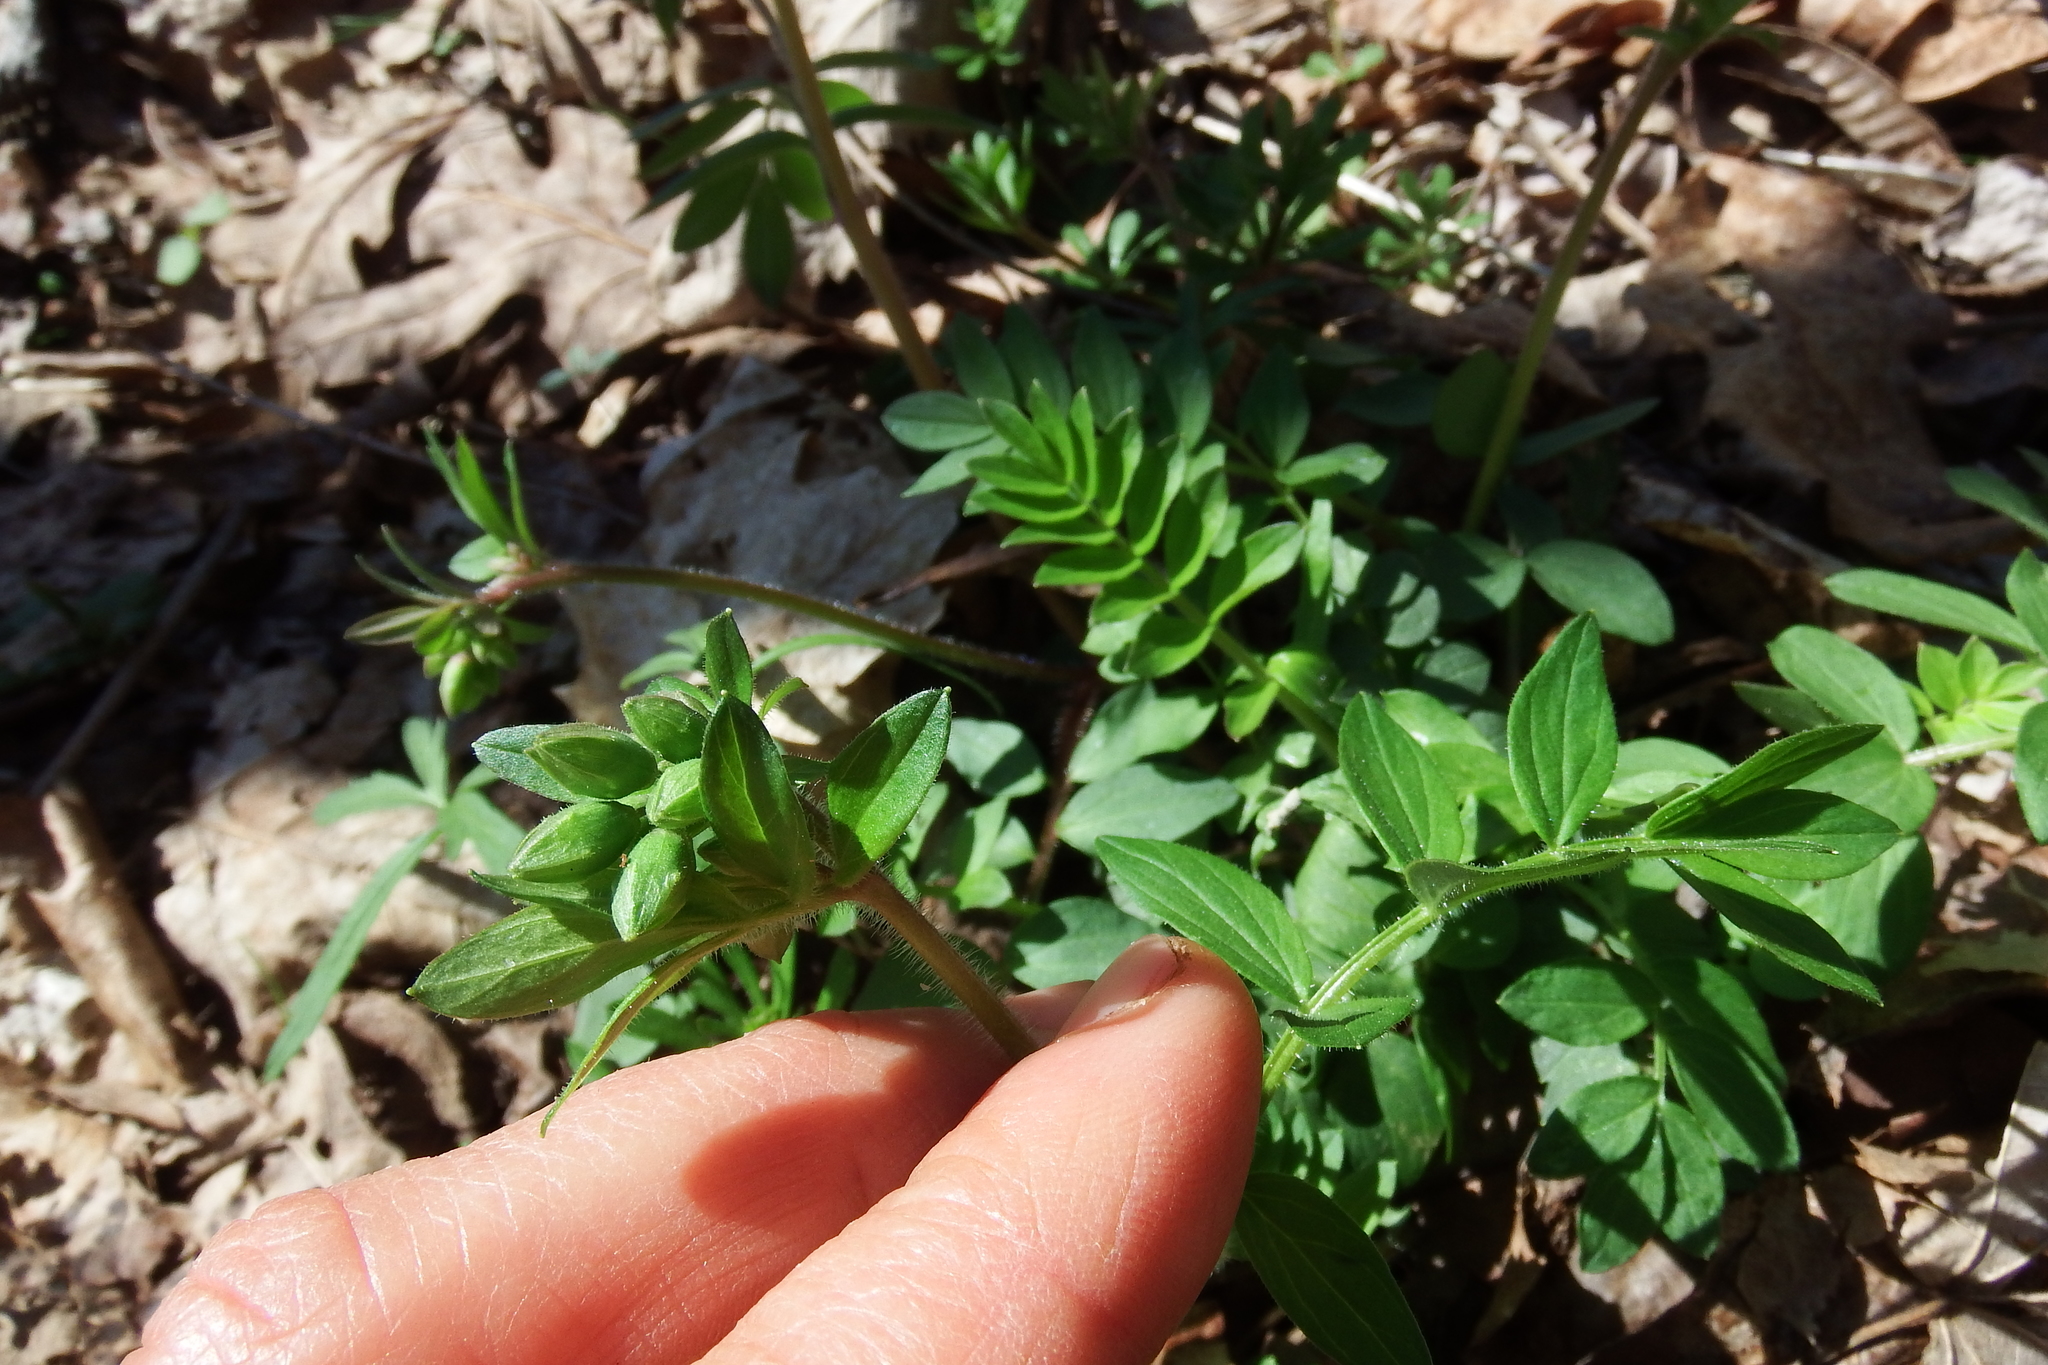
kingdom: Plantae
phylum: Tracheophyta
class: Magnoliopsida
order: Ericales
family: Polemoniaceae
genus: Polemonium
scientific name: Polemonium reptans
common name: Creeping jacob's-ladder
